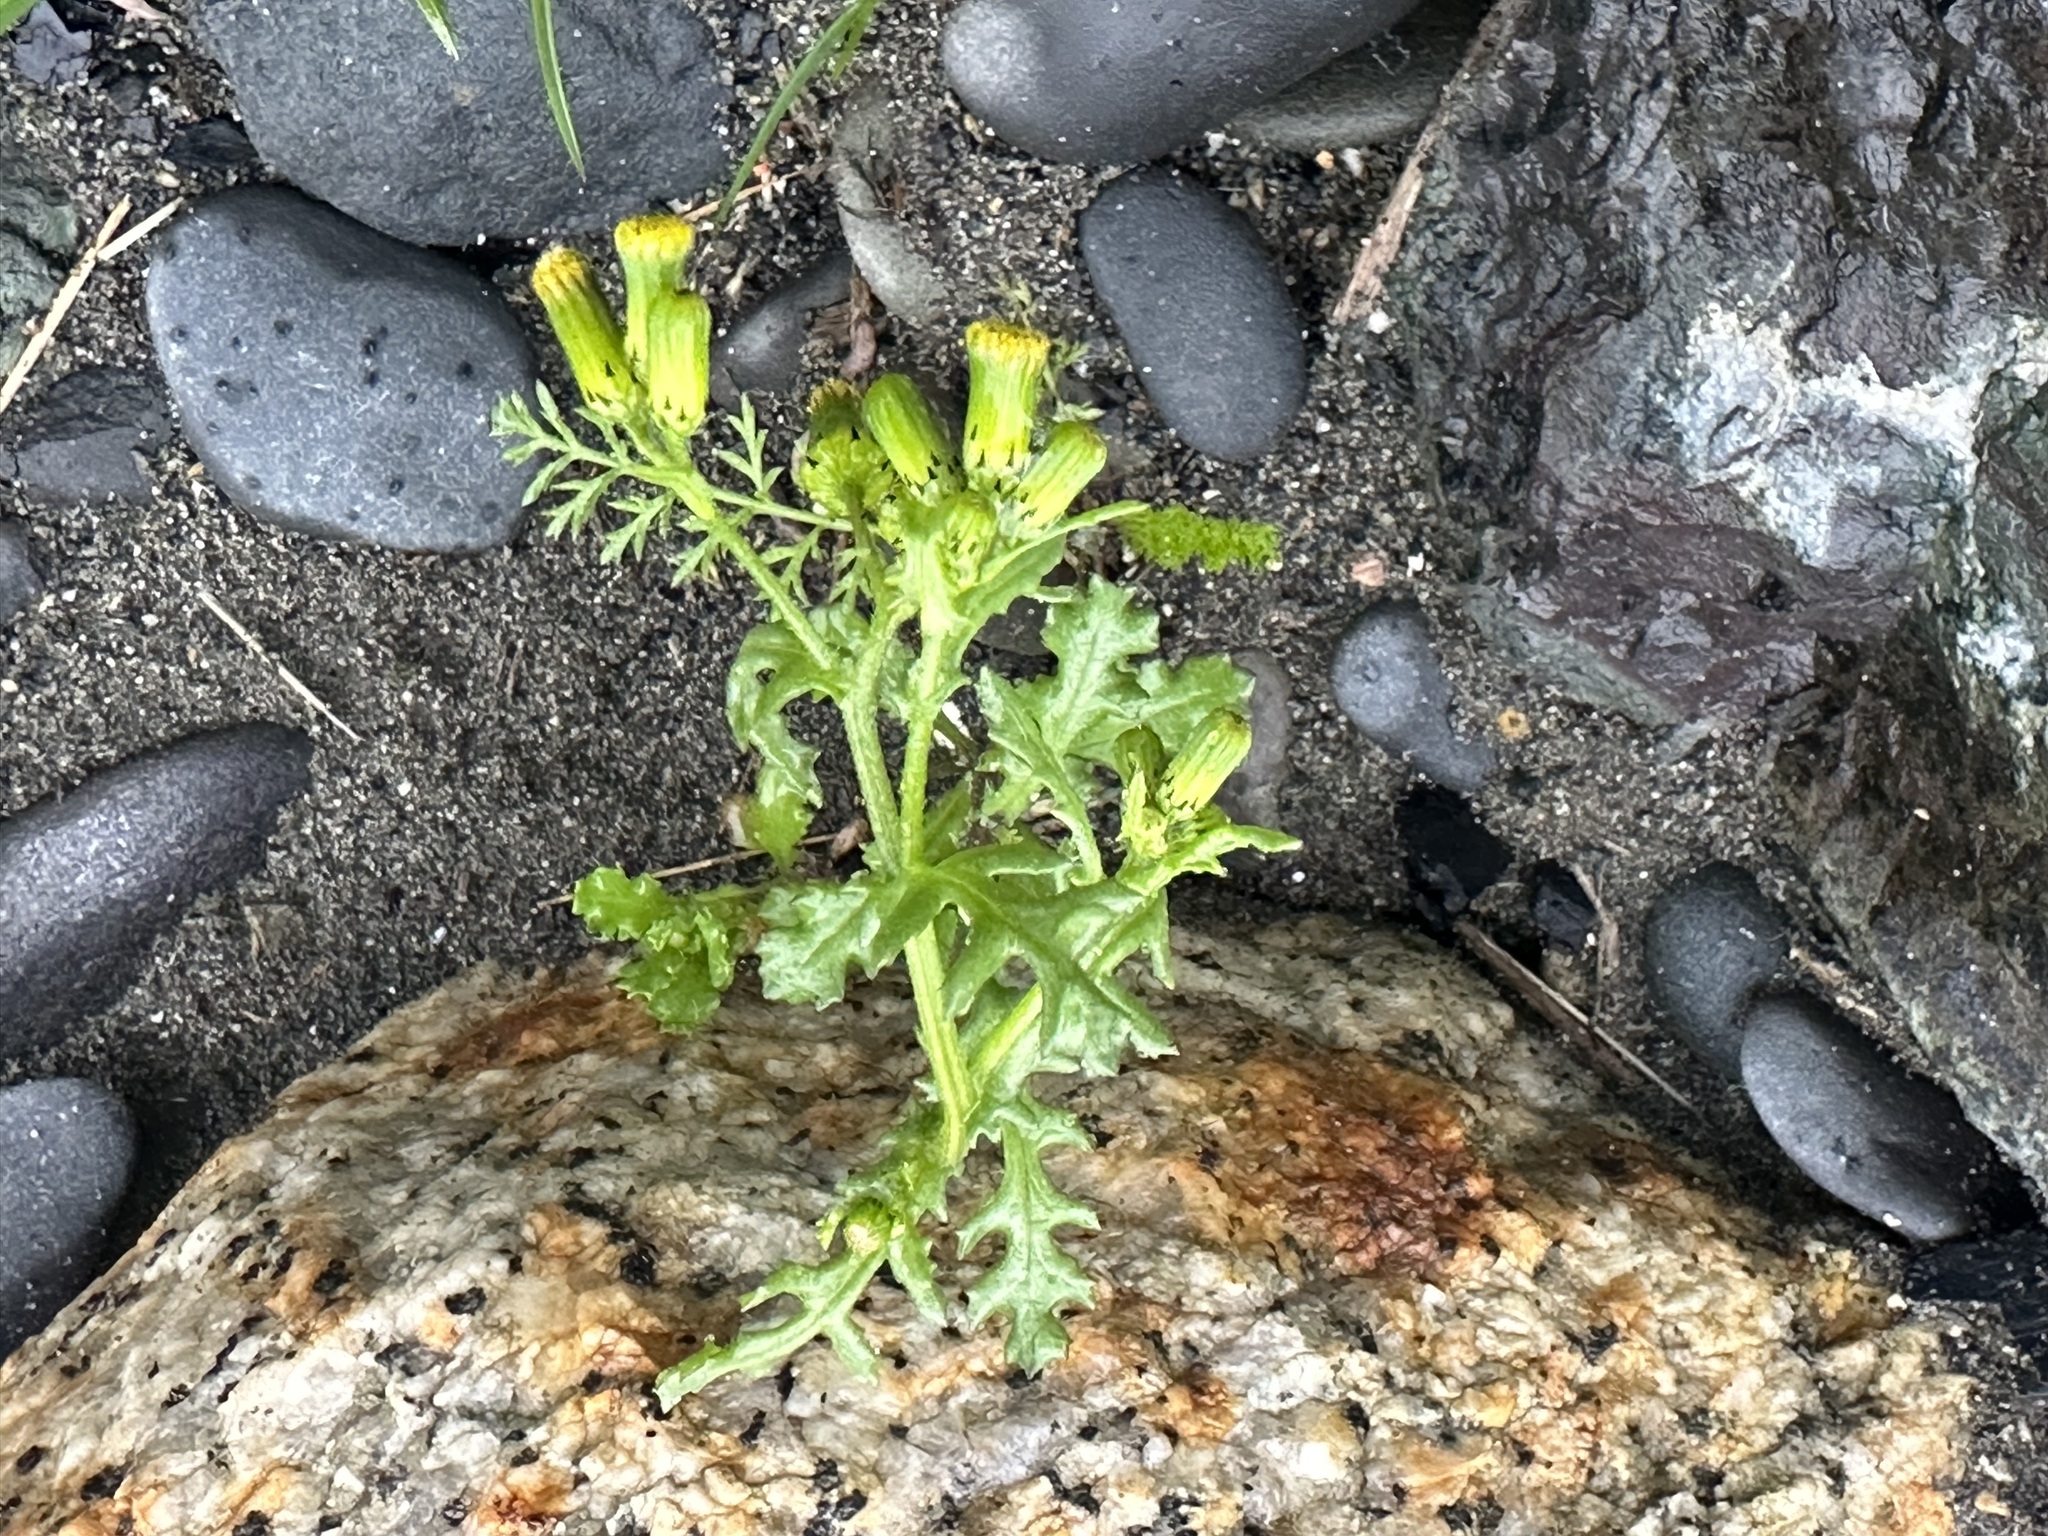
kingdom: Plantae
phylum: Tracheophyta
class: Magnoliopsida
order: Asterales
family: Asteraceae
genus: Senecio
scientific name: Senecio vulgaris
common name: Old-man-in-the-spring
